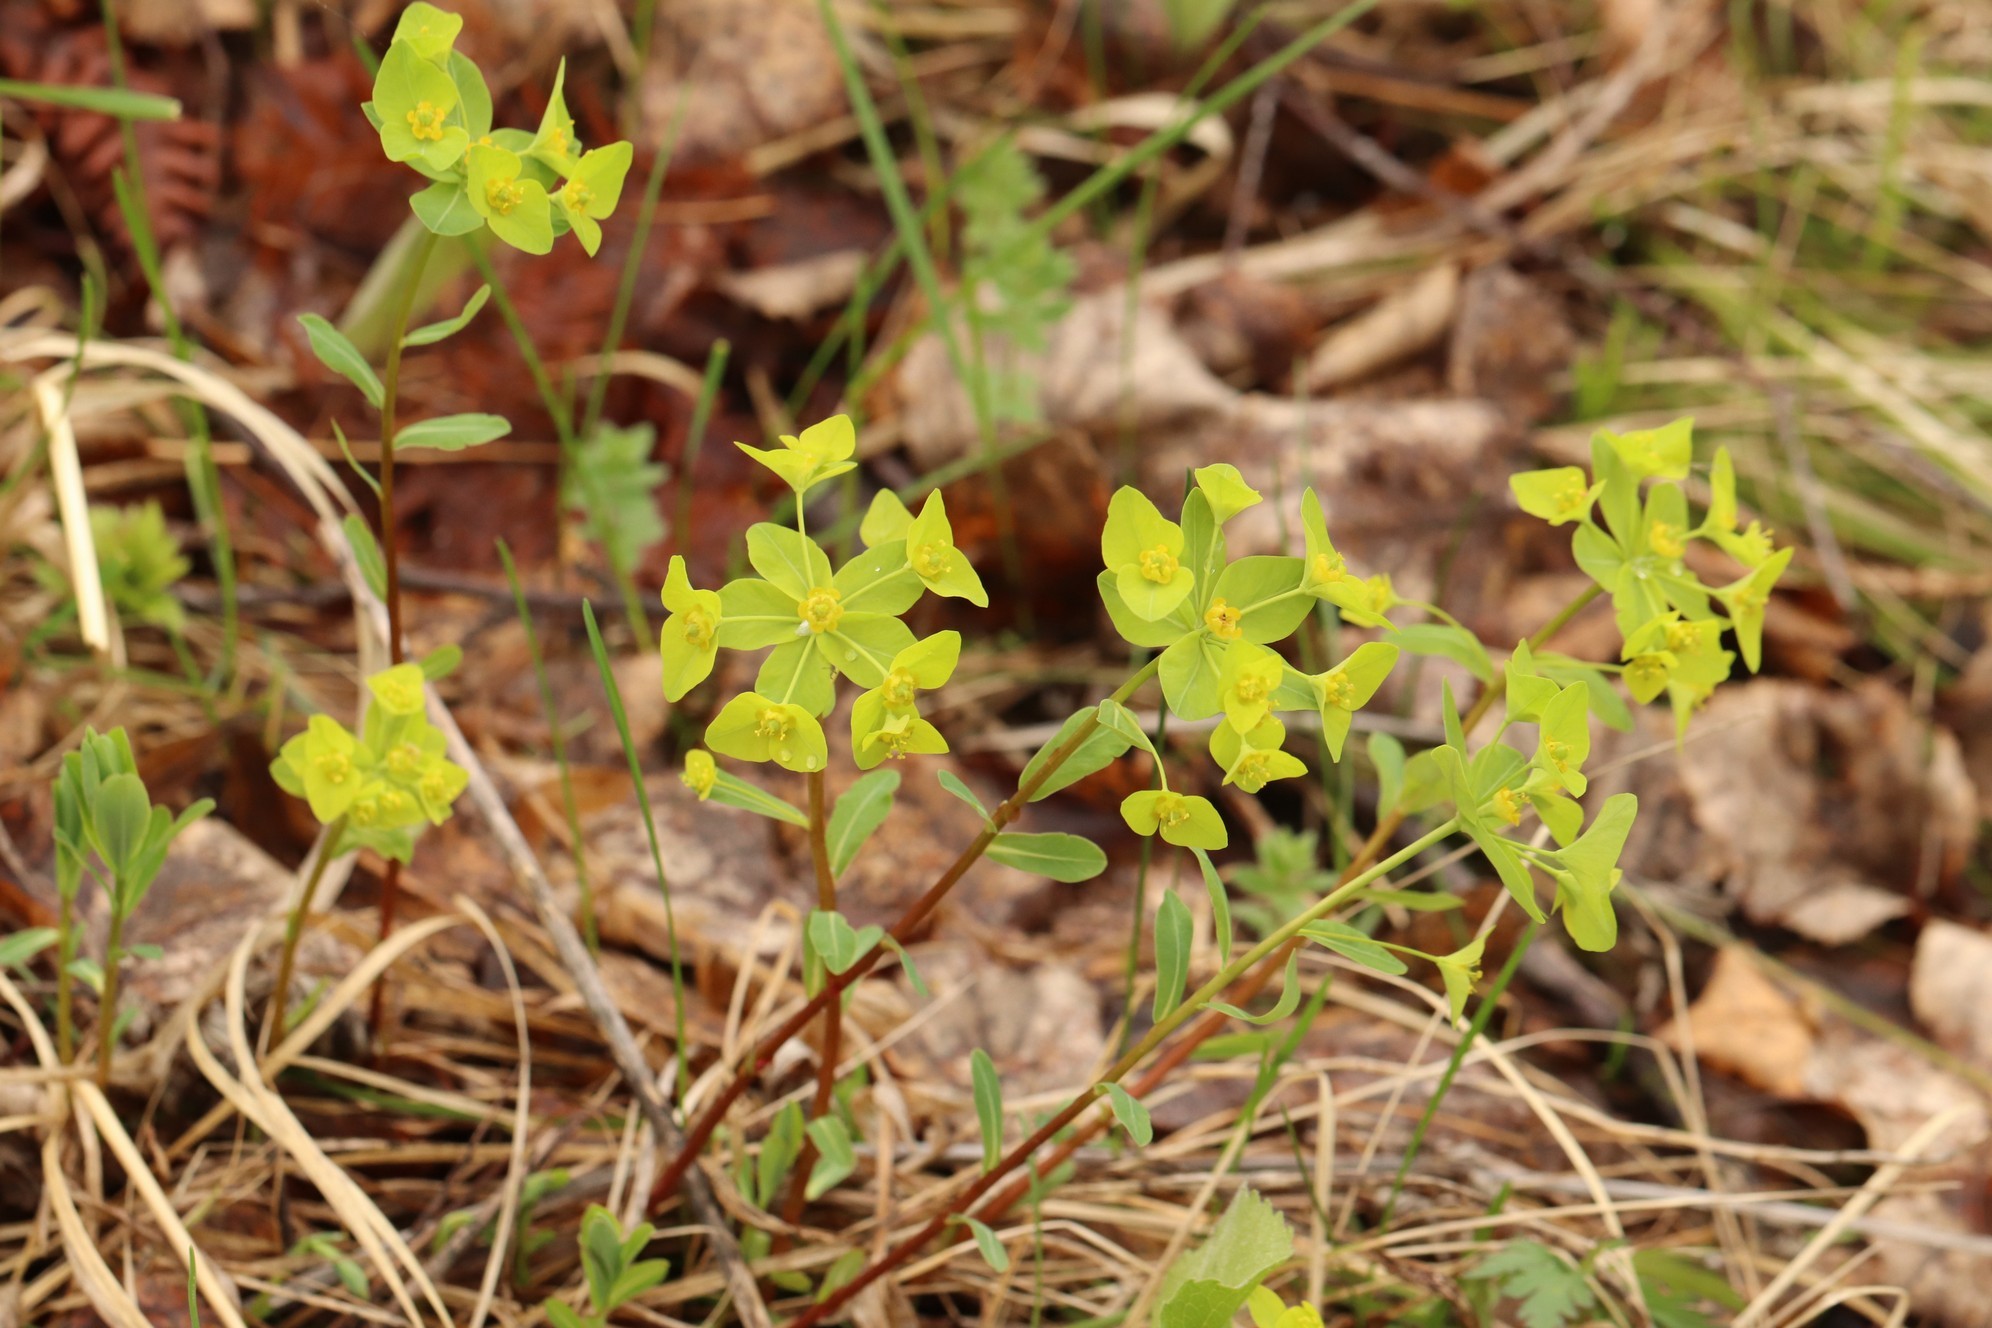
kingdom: Plantae
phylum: Tracheophyta
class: Magnoliopsida
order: Malpighiales
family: Euphorbiaceae
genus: Euphorbia
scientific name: Euphorbia altaica
